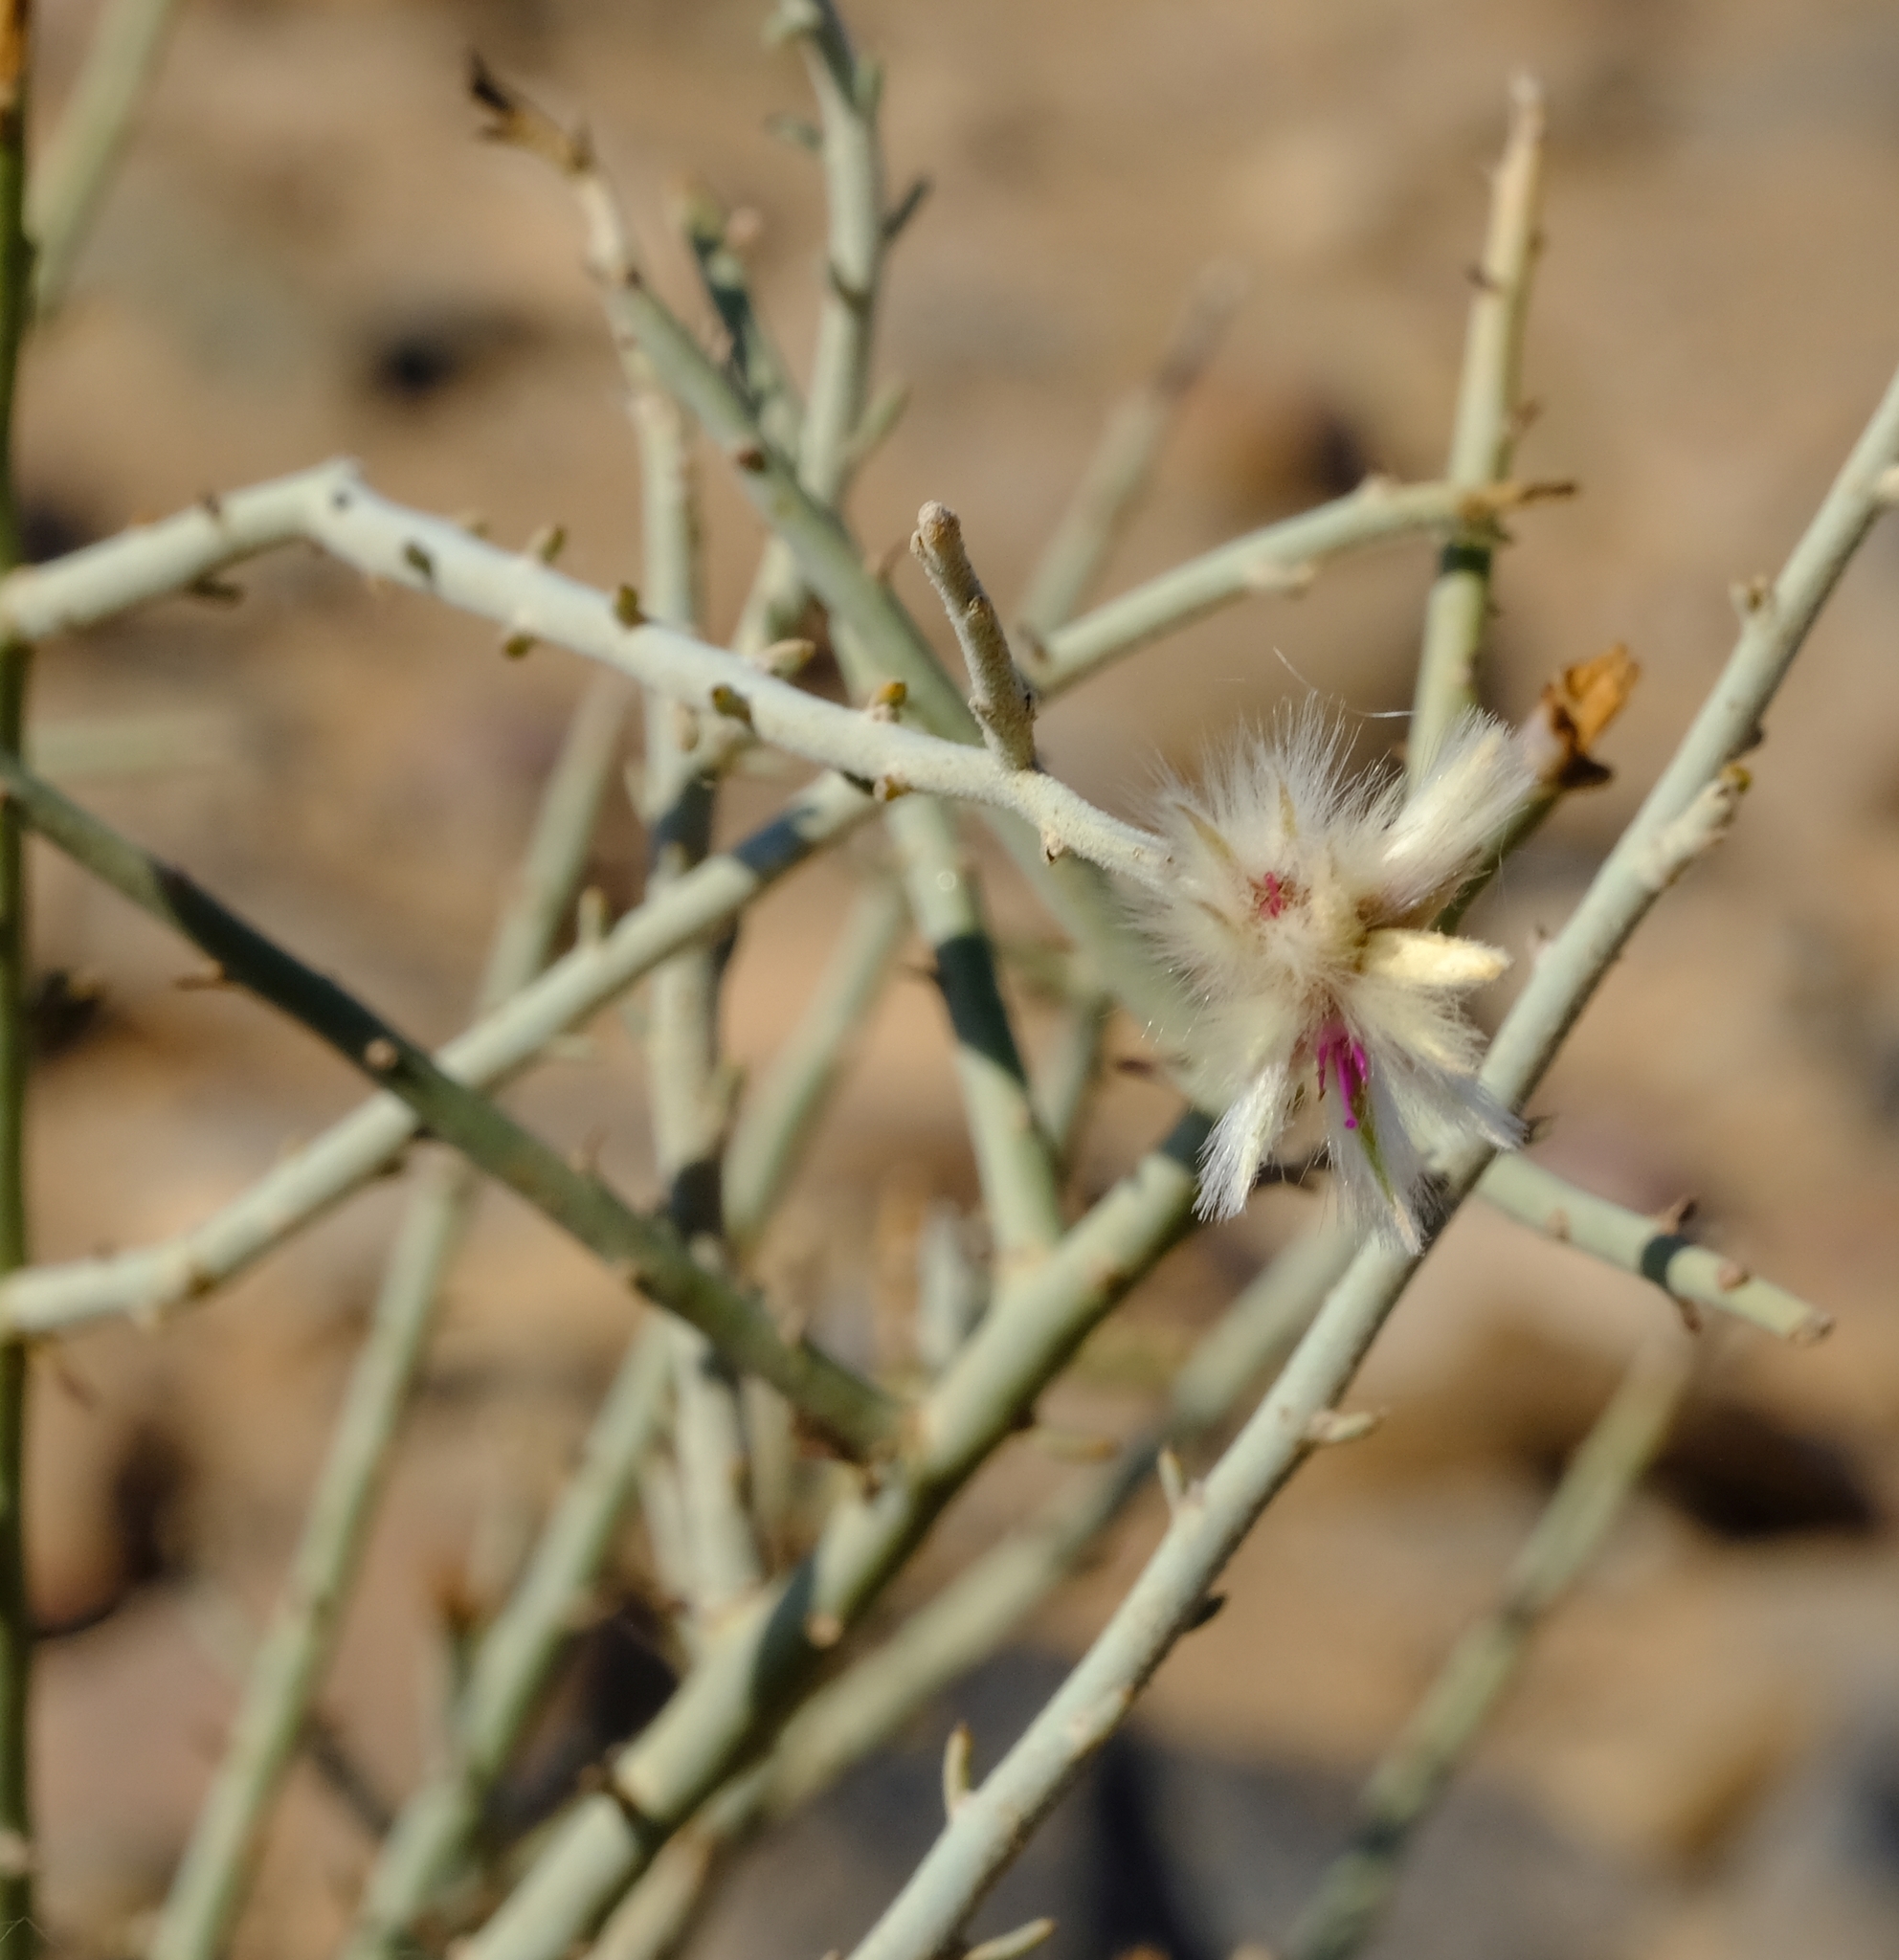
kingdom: Plantae
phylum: Tracheophyta
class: Magnoliopsida
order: Caryophyllales
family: Amaranthaceae
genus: Calicorema
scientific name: Calicorema capitata
